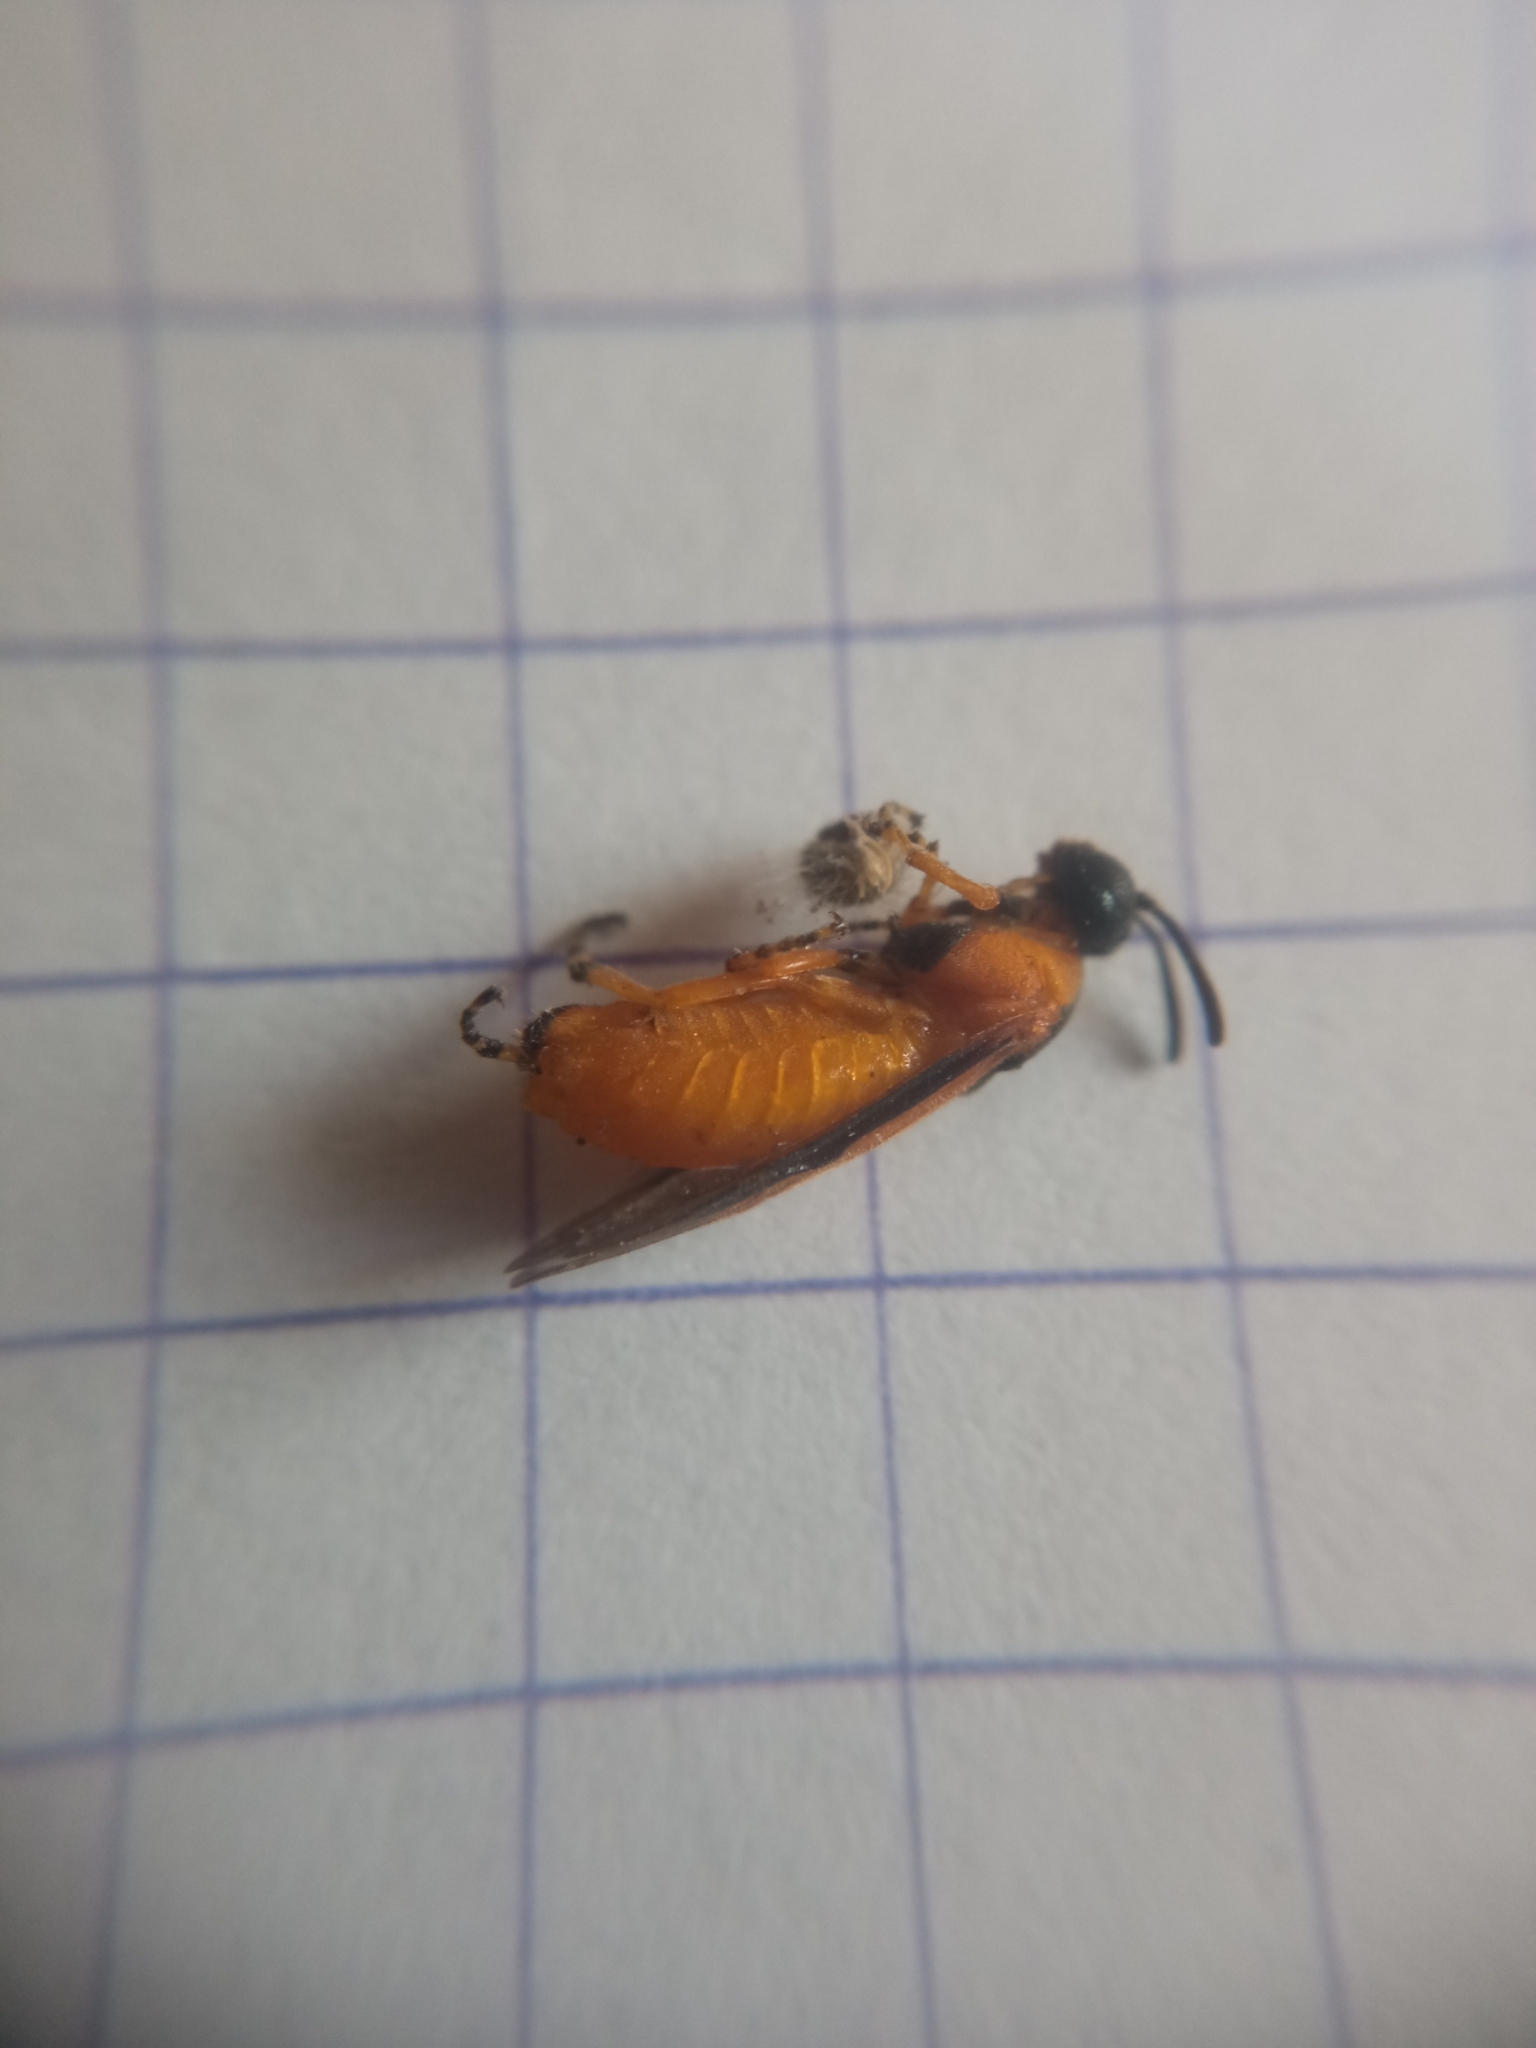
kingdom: Animalia
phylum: Arthropoda
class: Insecta
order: Hymenoptera
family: Argidae
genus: Arge
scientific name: Arge ochropus
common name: Argid sawfly
